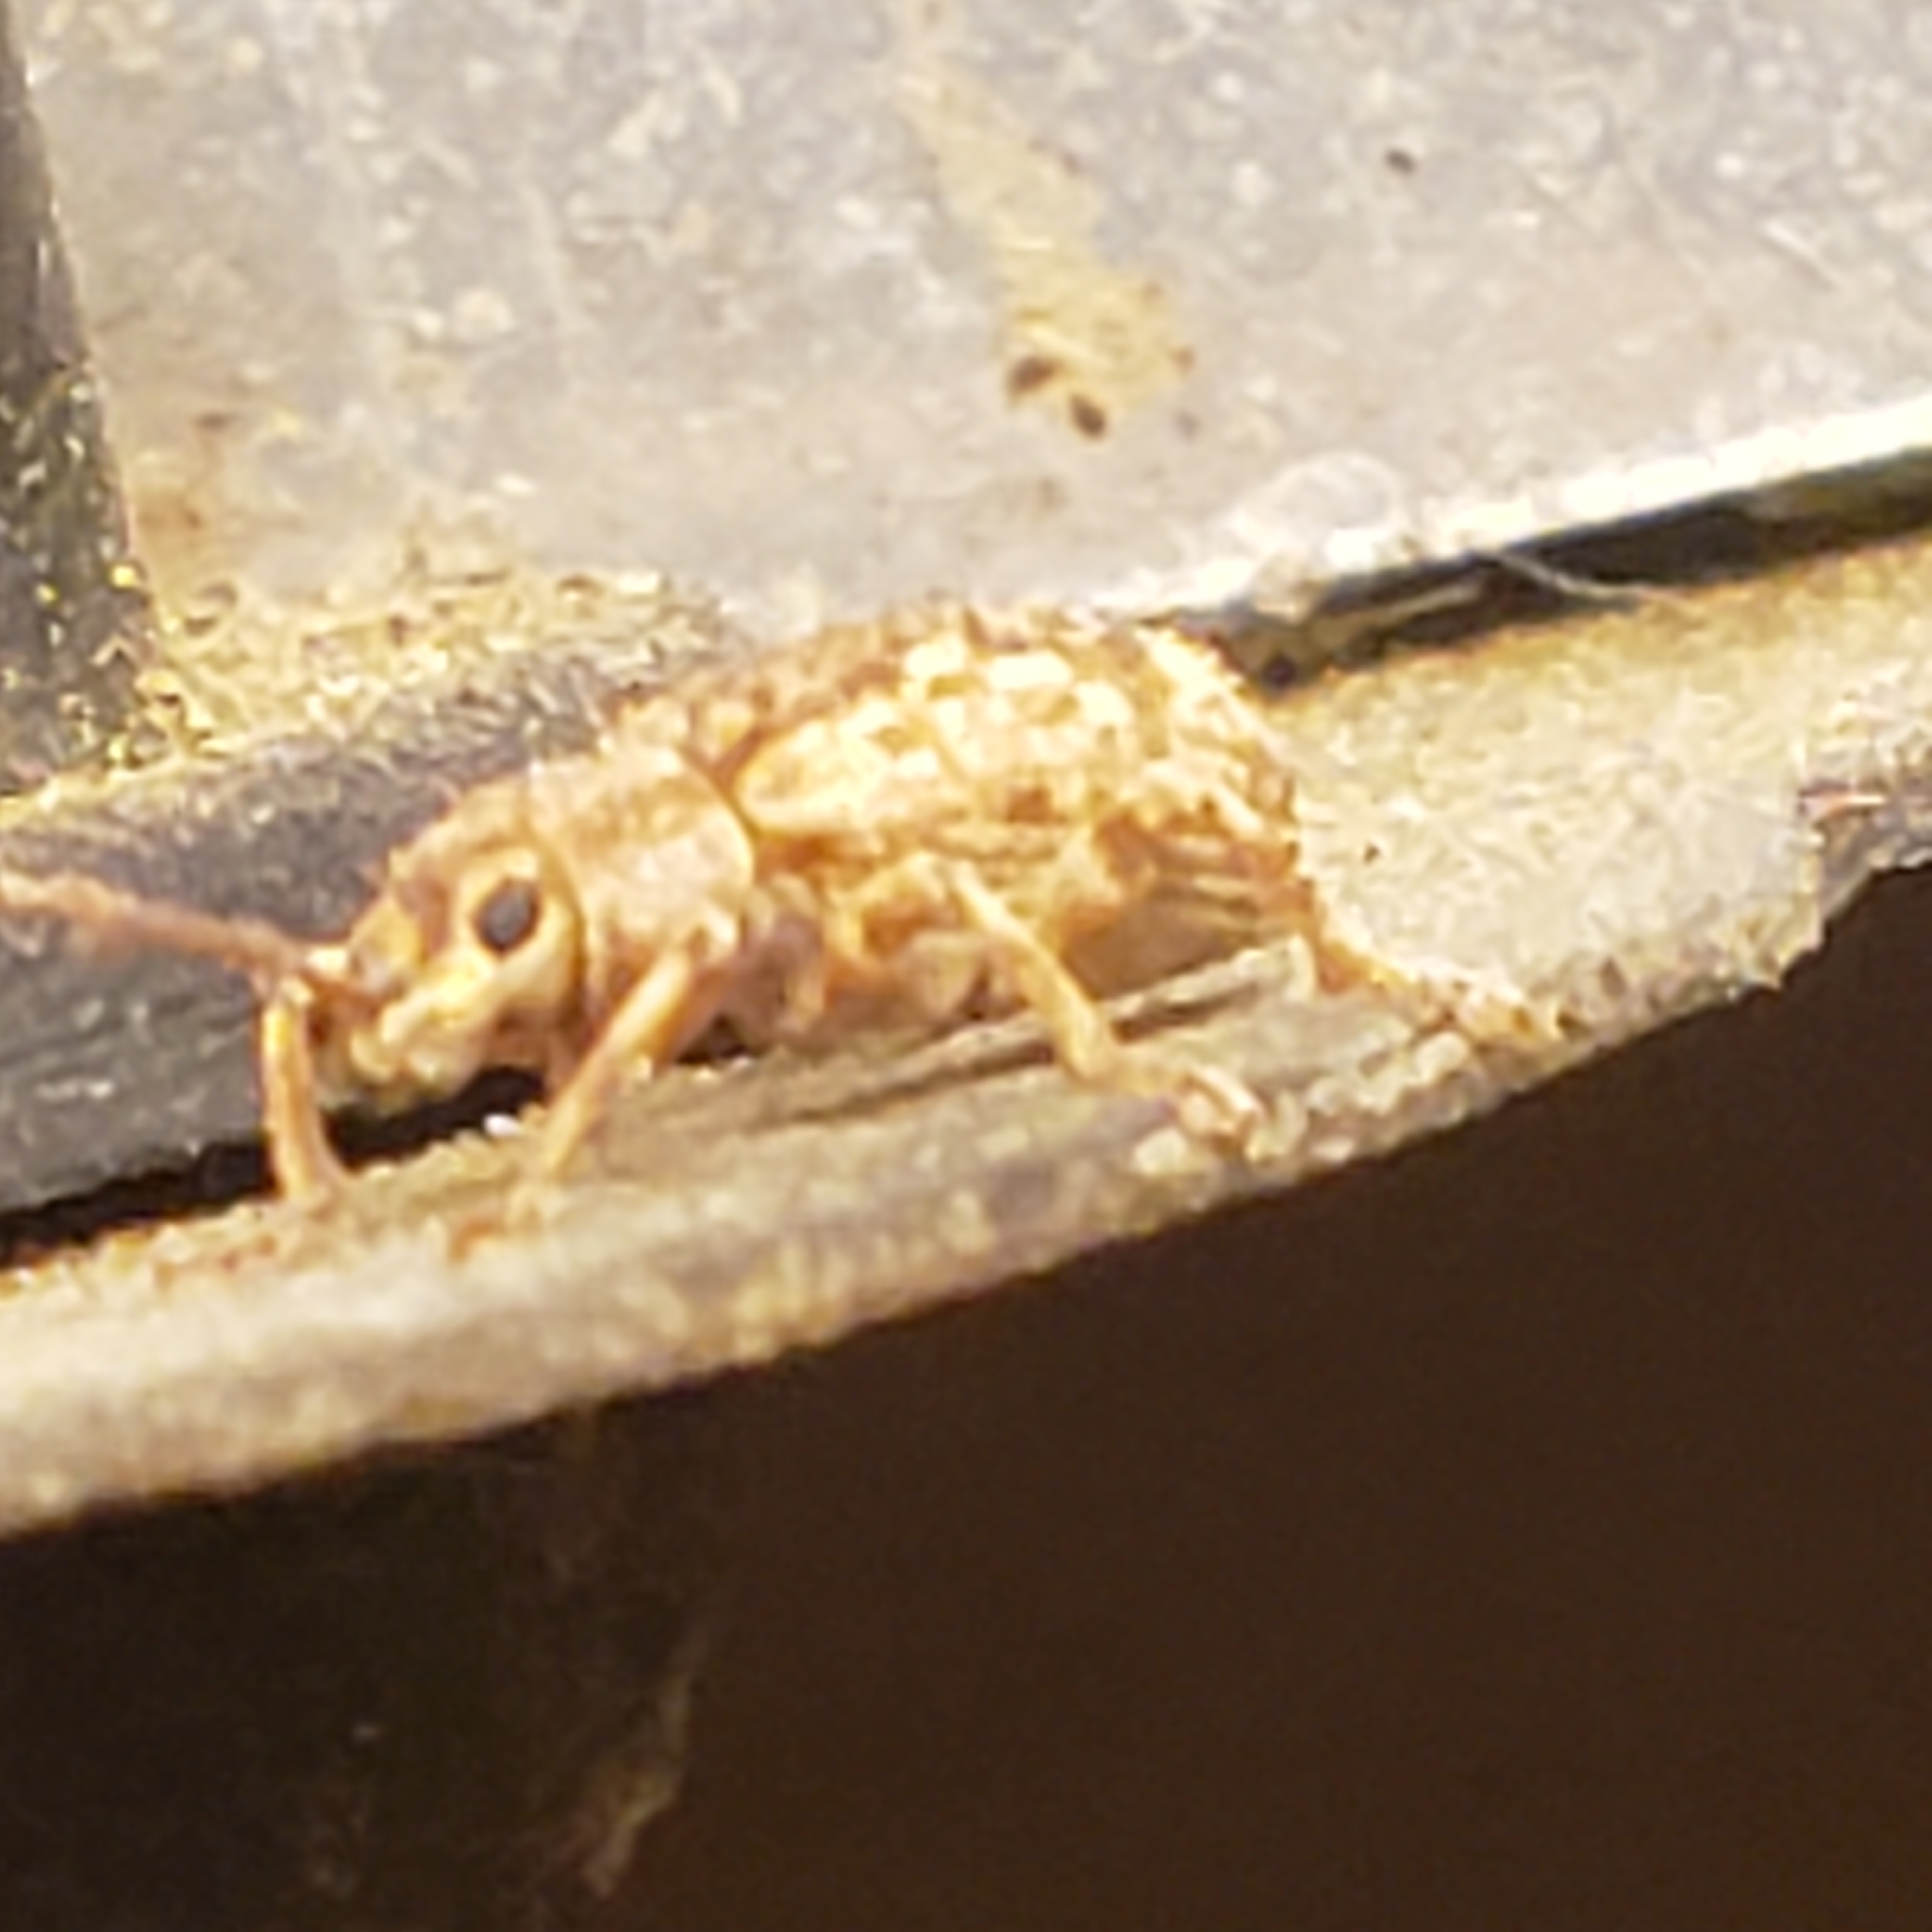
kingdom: Animalia
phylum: Arthropoda
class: Insecta
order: Coleoptera
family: Curculionidae
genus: Pseudoedophrys
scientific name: Pseudoedophrys hilleri
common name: Weevil
